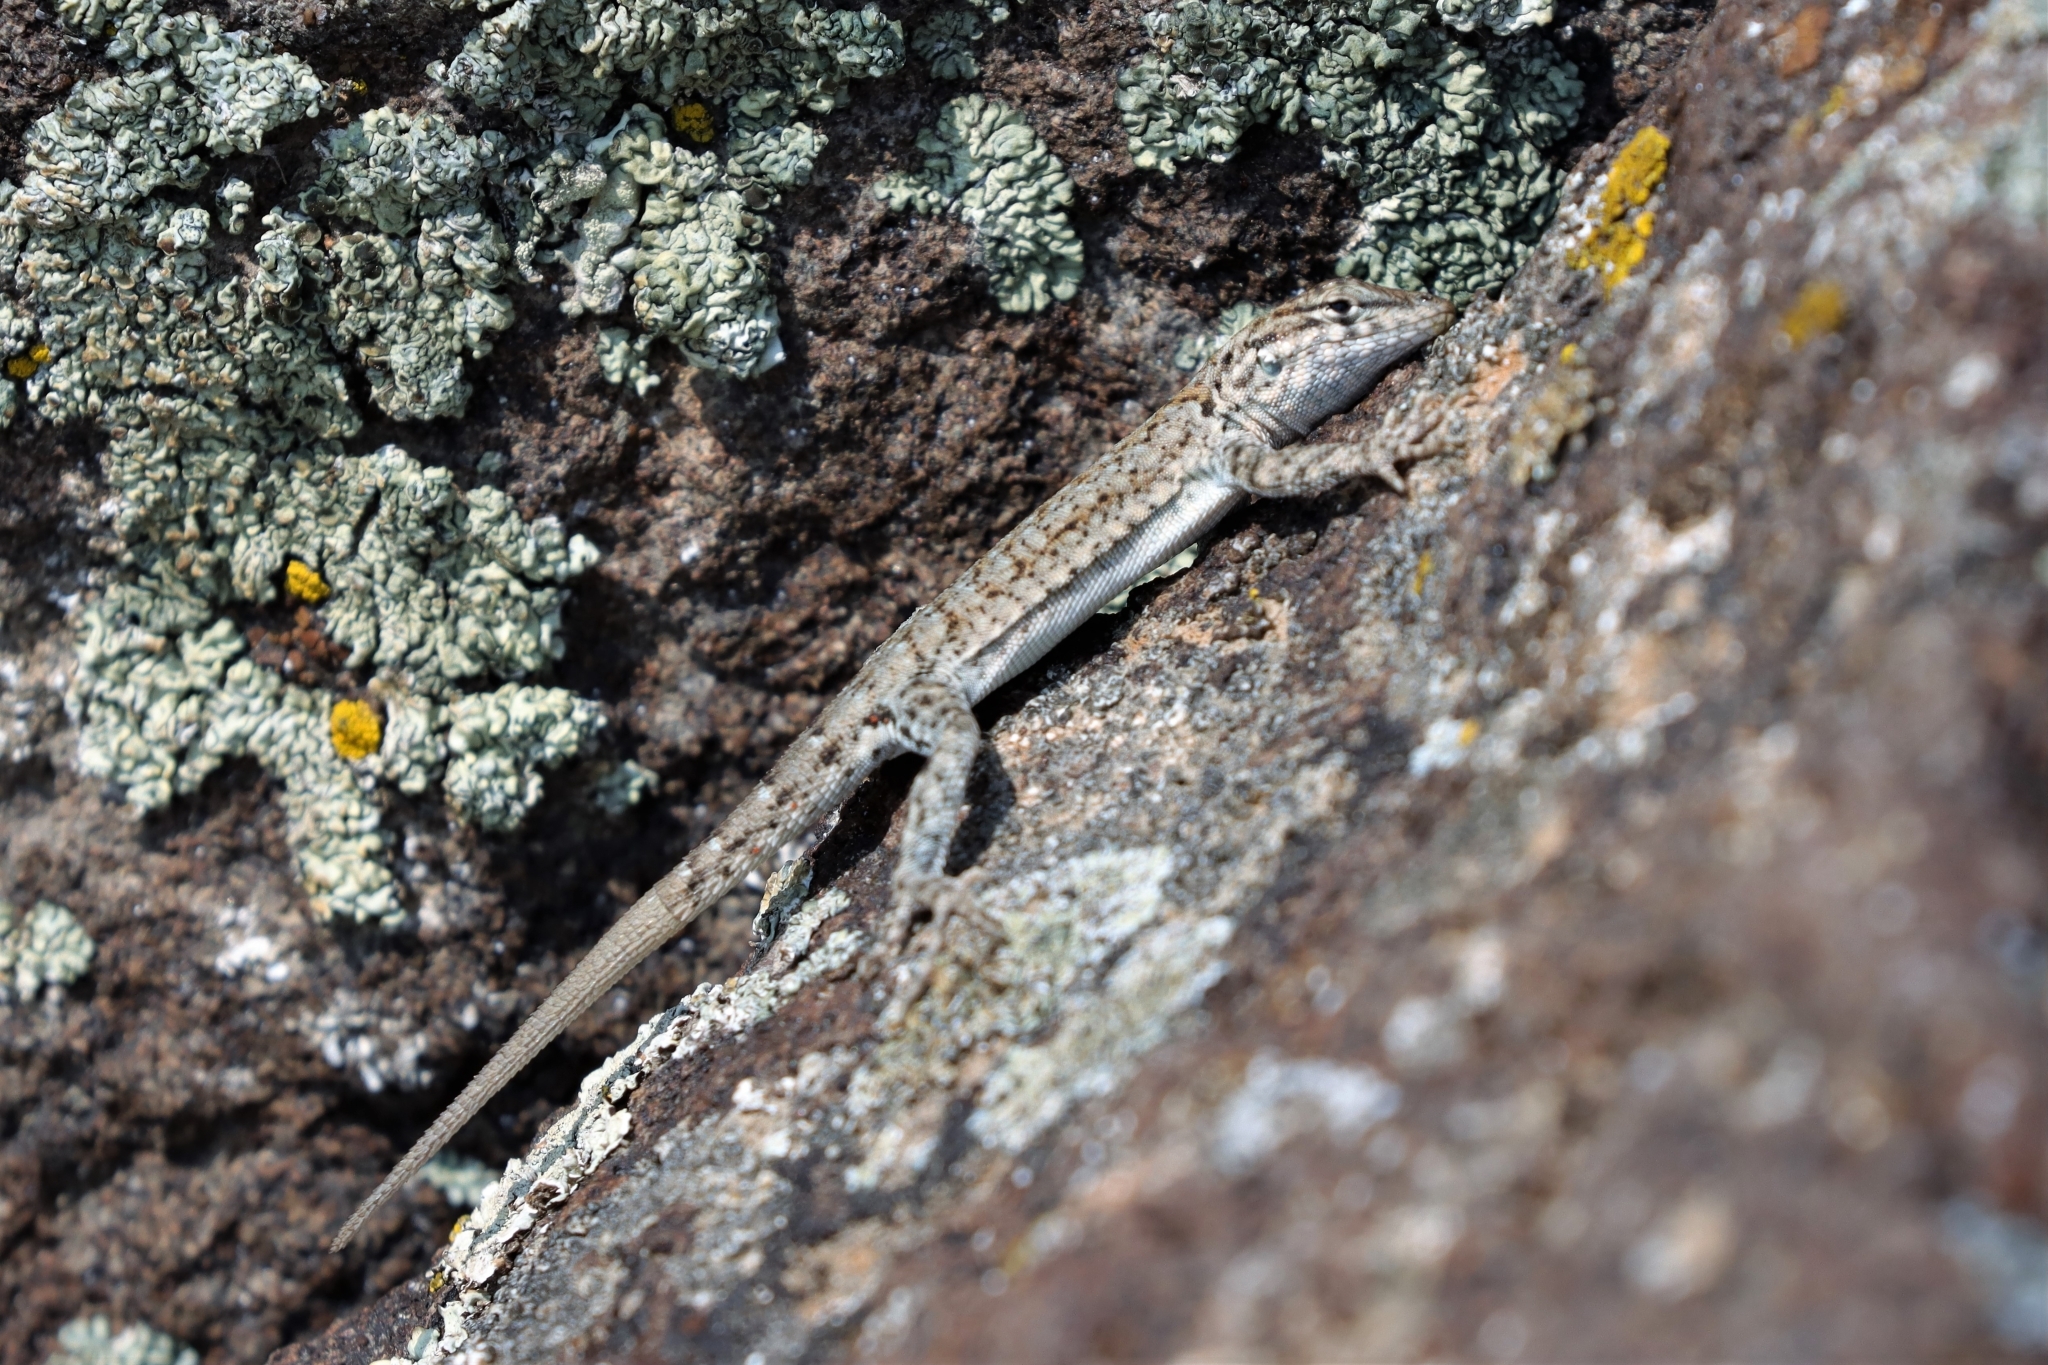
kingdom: Animalia
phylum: Chordata
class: Squamata
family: Phrynosomatidae
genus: Uta
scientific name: Uta stansburiana
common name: Side-blotched lizard
